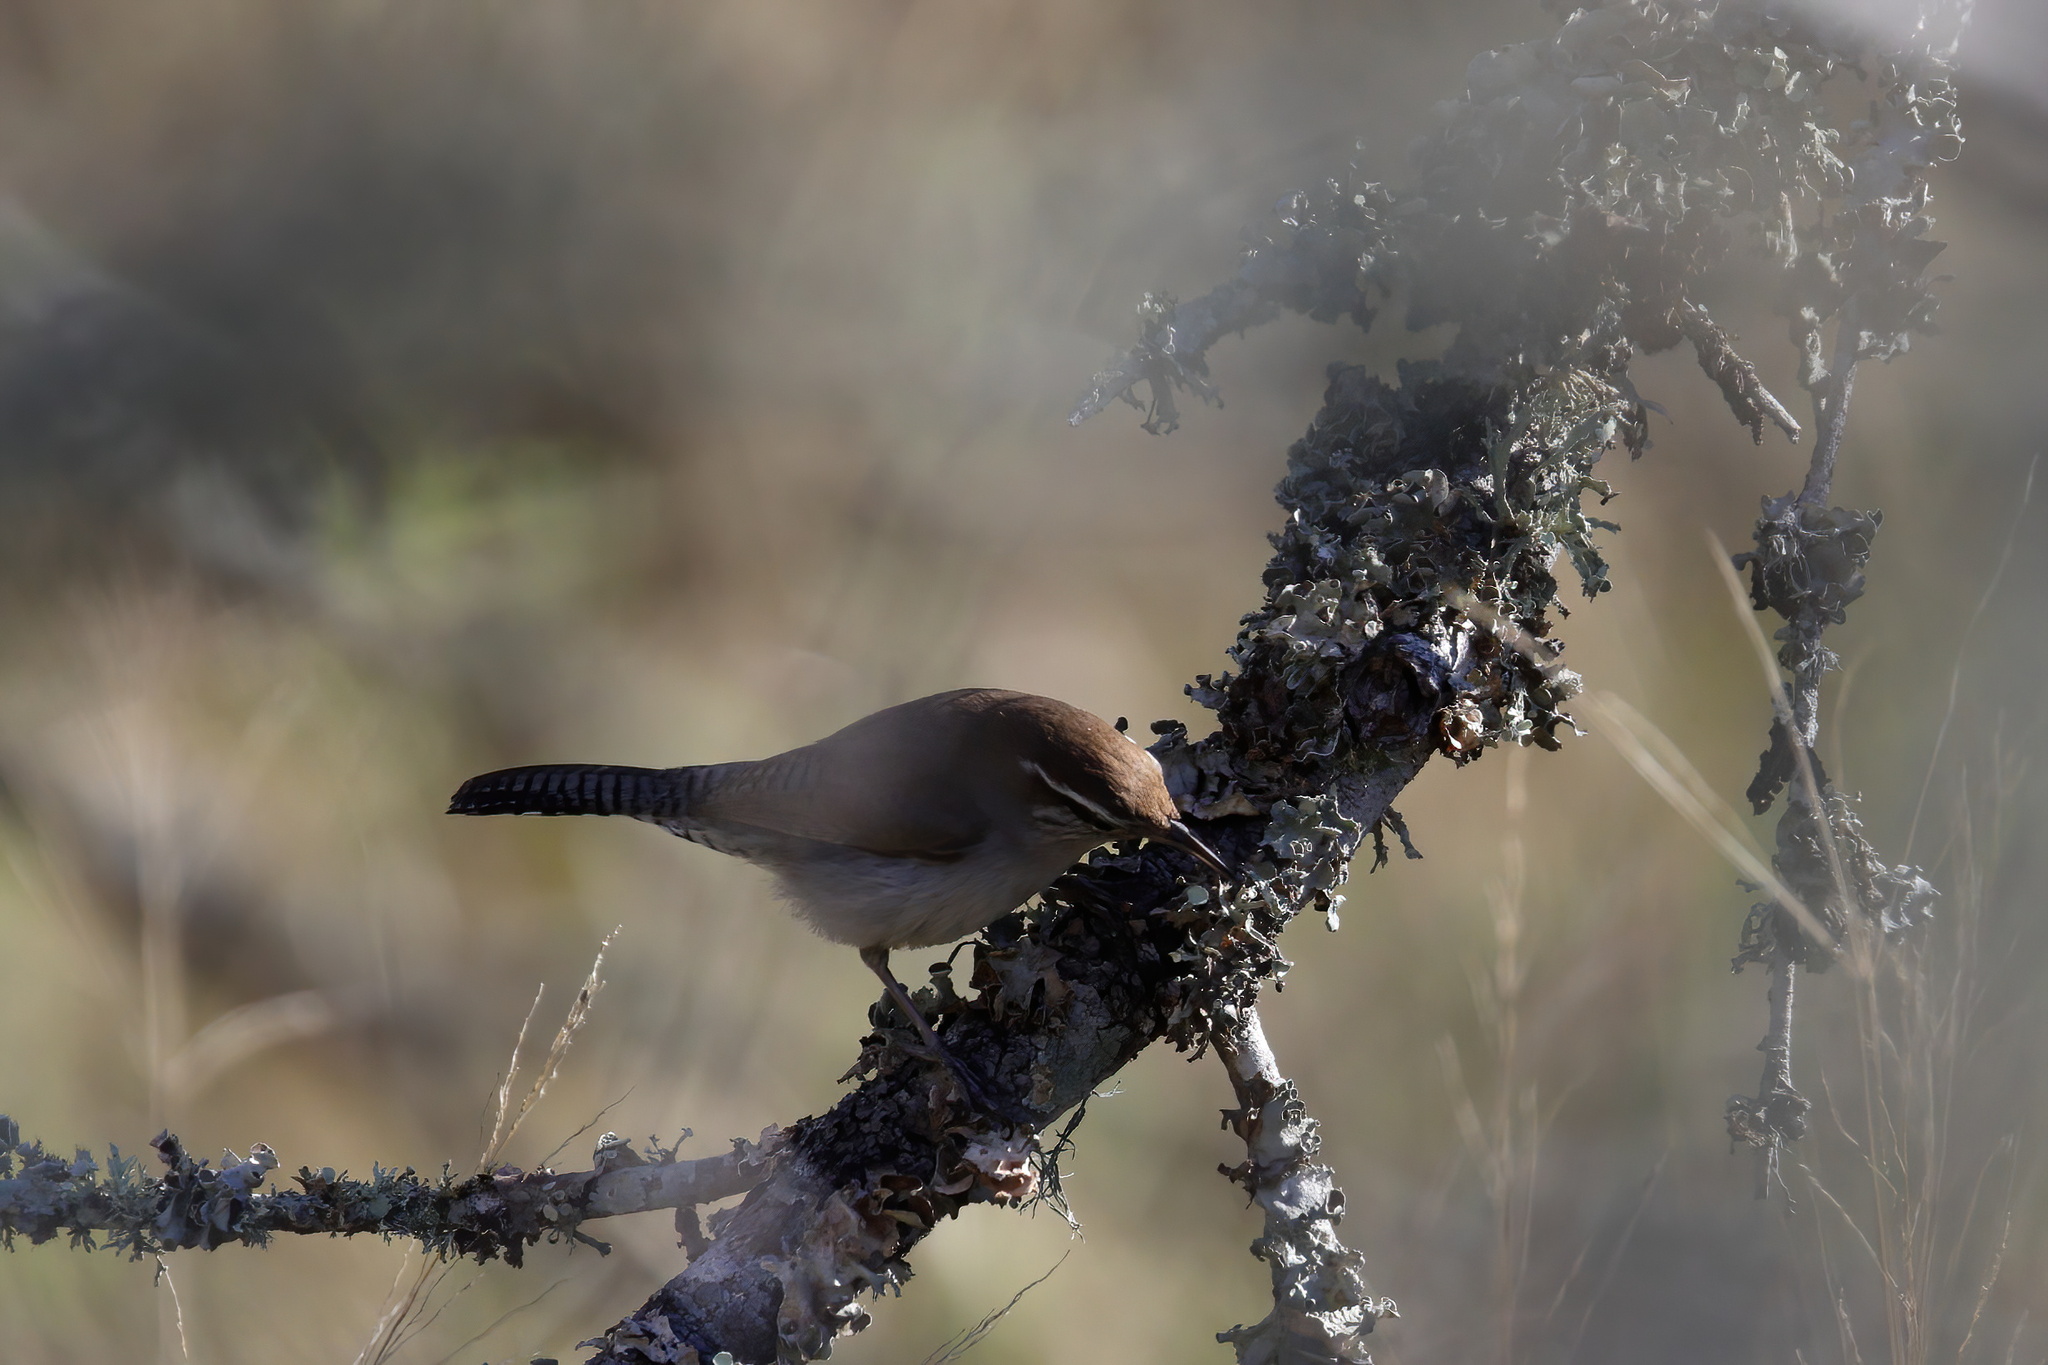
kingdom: Animalia
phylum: Chordata
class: Aves
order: Passeriformes
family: Troglodytidae
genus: Thryomanes
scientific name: Thryomanes bewickii
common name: Bewick's wren
